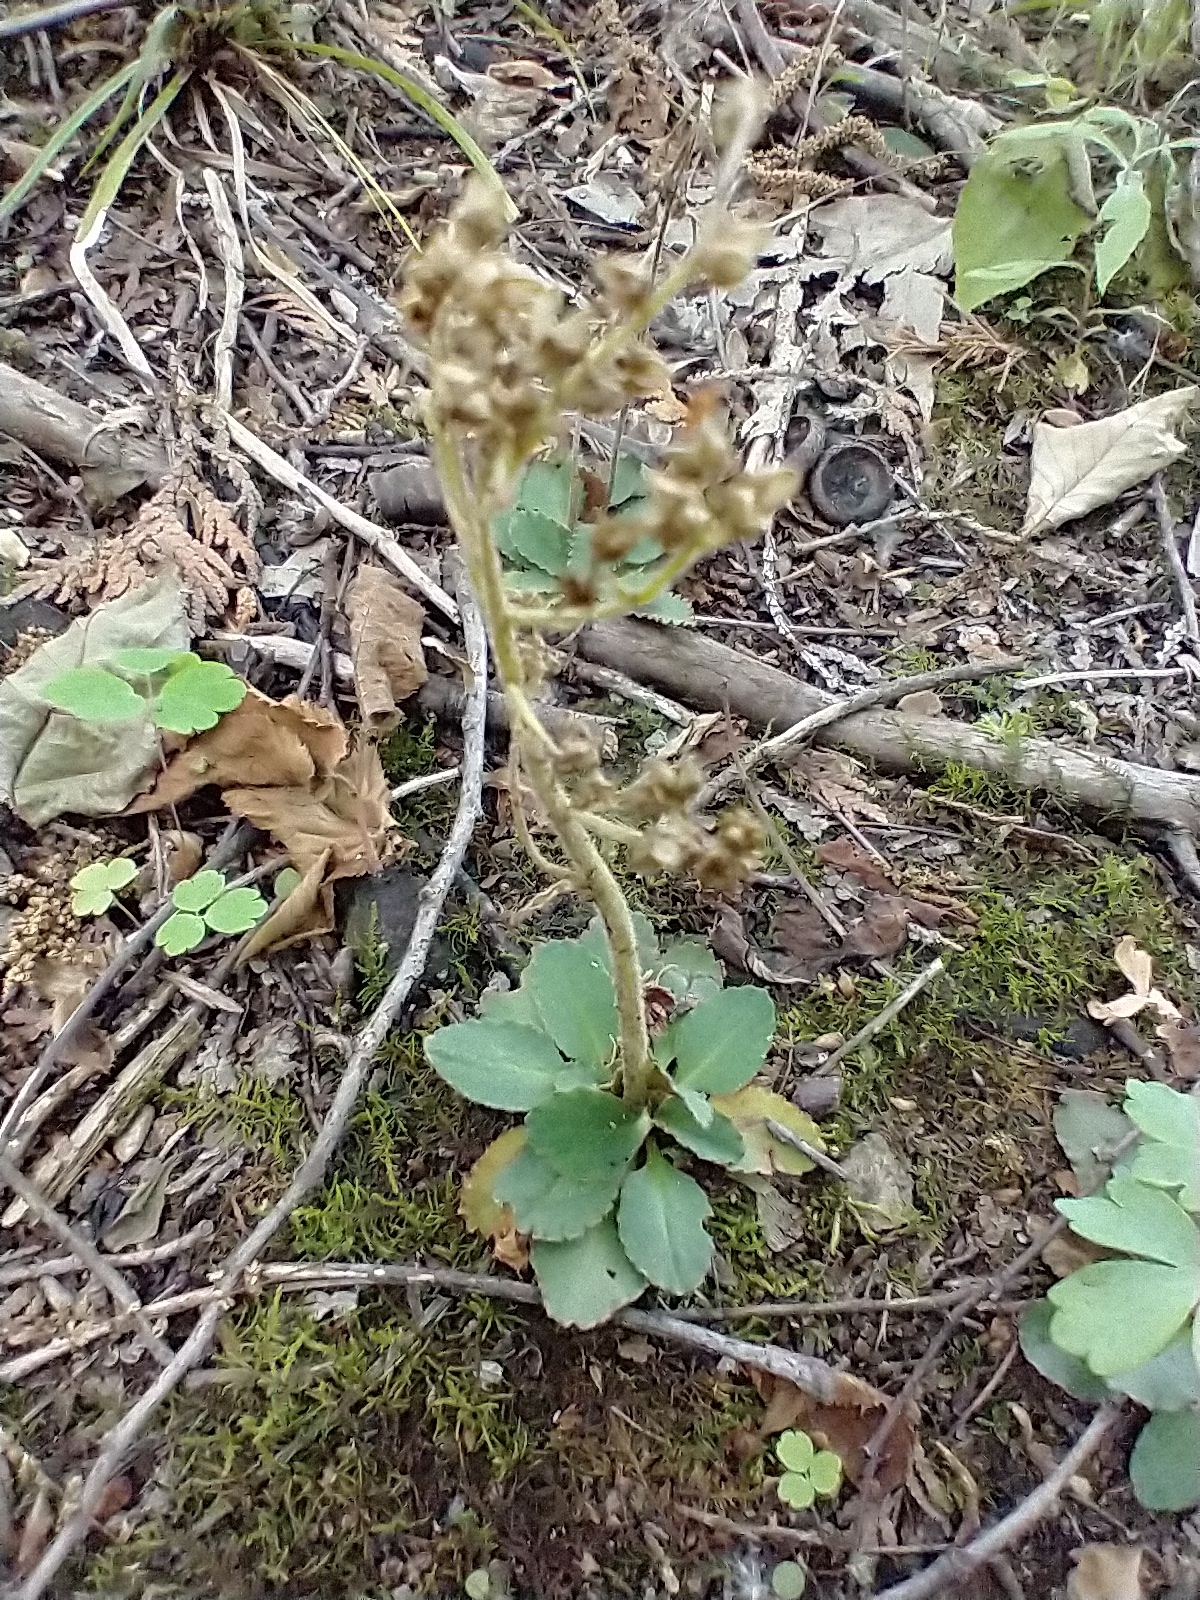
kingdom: Plantae
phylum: Tracheophyta
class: Magnoliopsida
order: Saxifragales
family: Saxifragaceae
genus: Micranthes
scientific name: Micranthes virginiensis
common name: Early saxifrage
